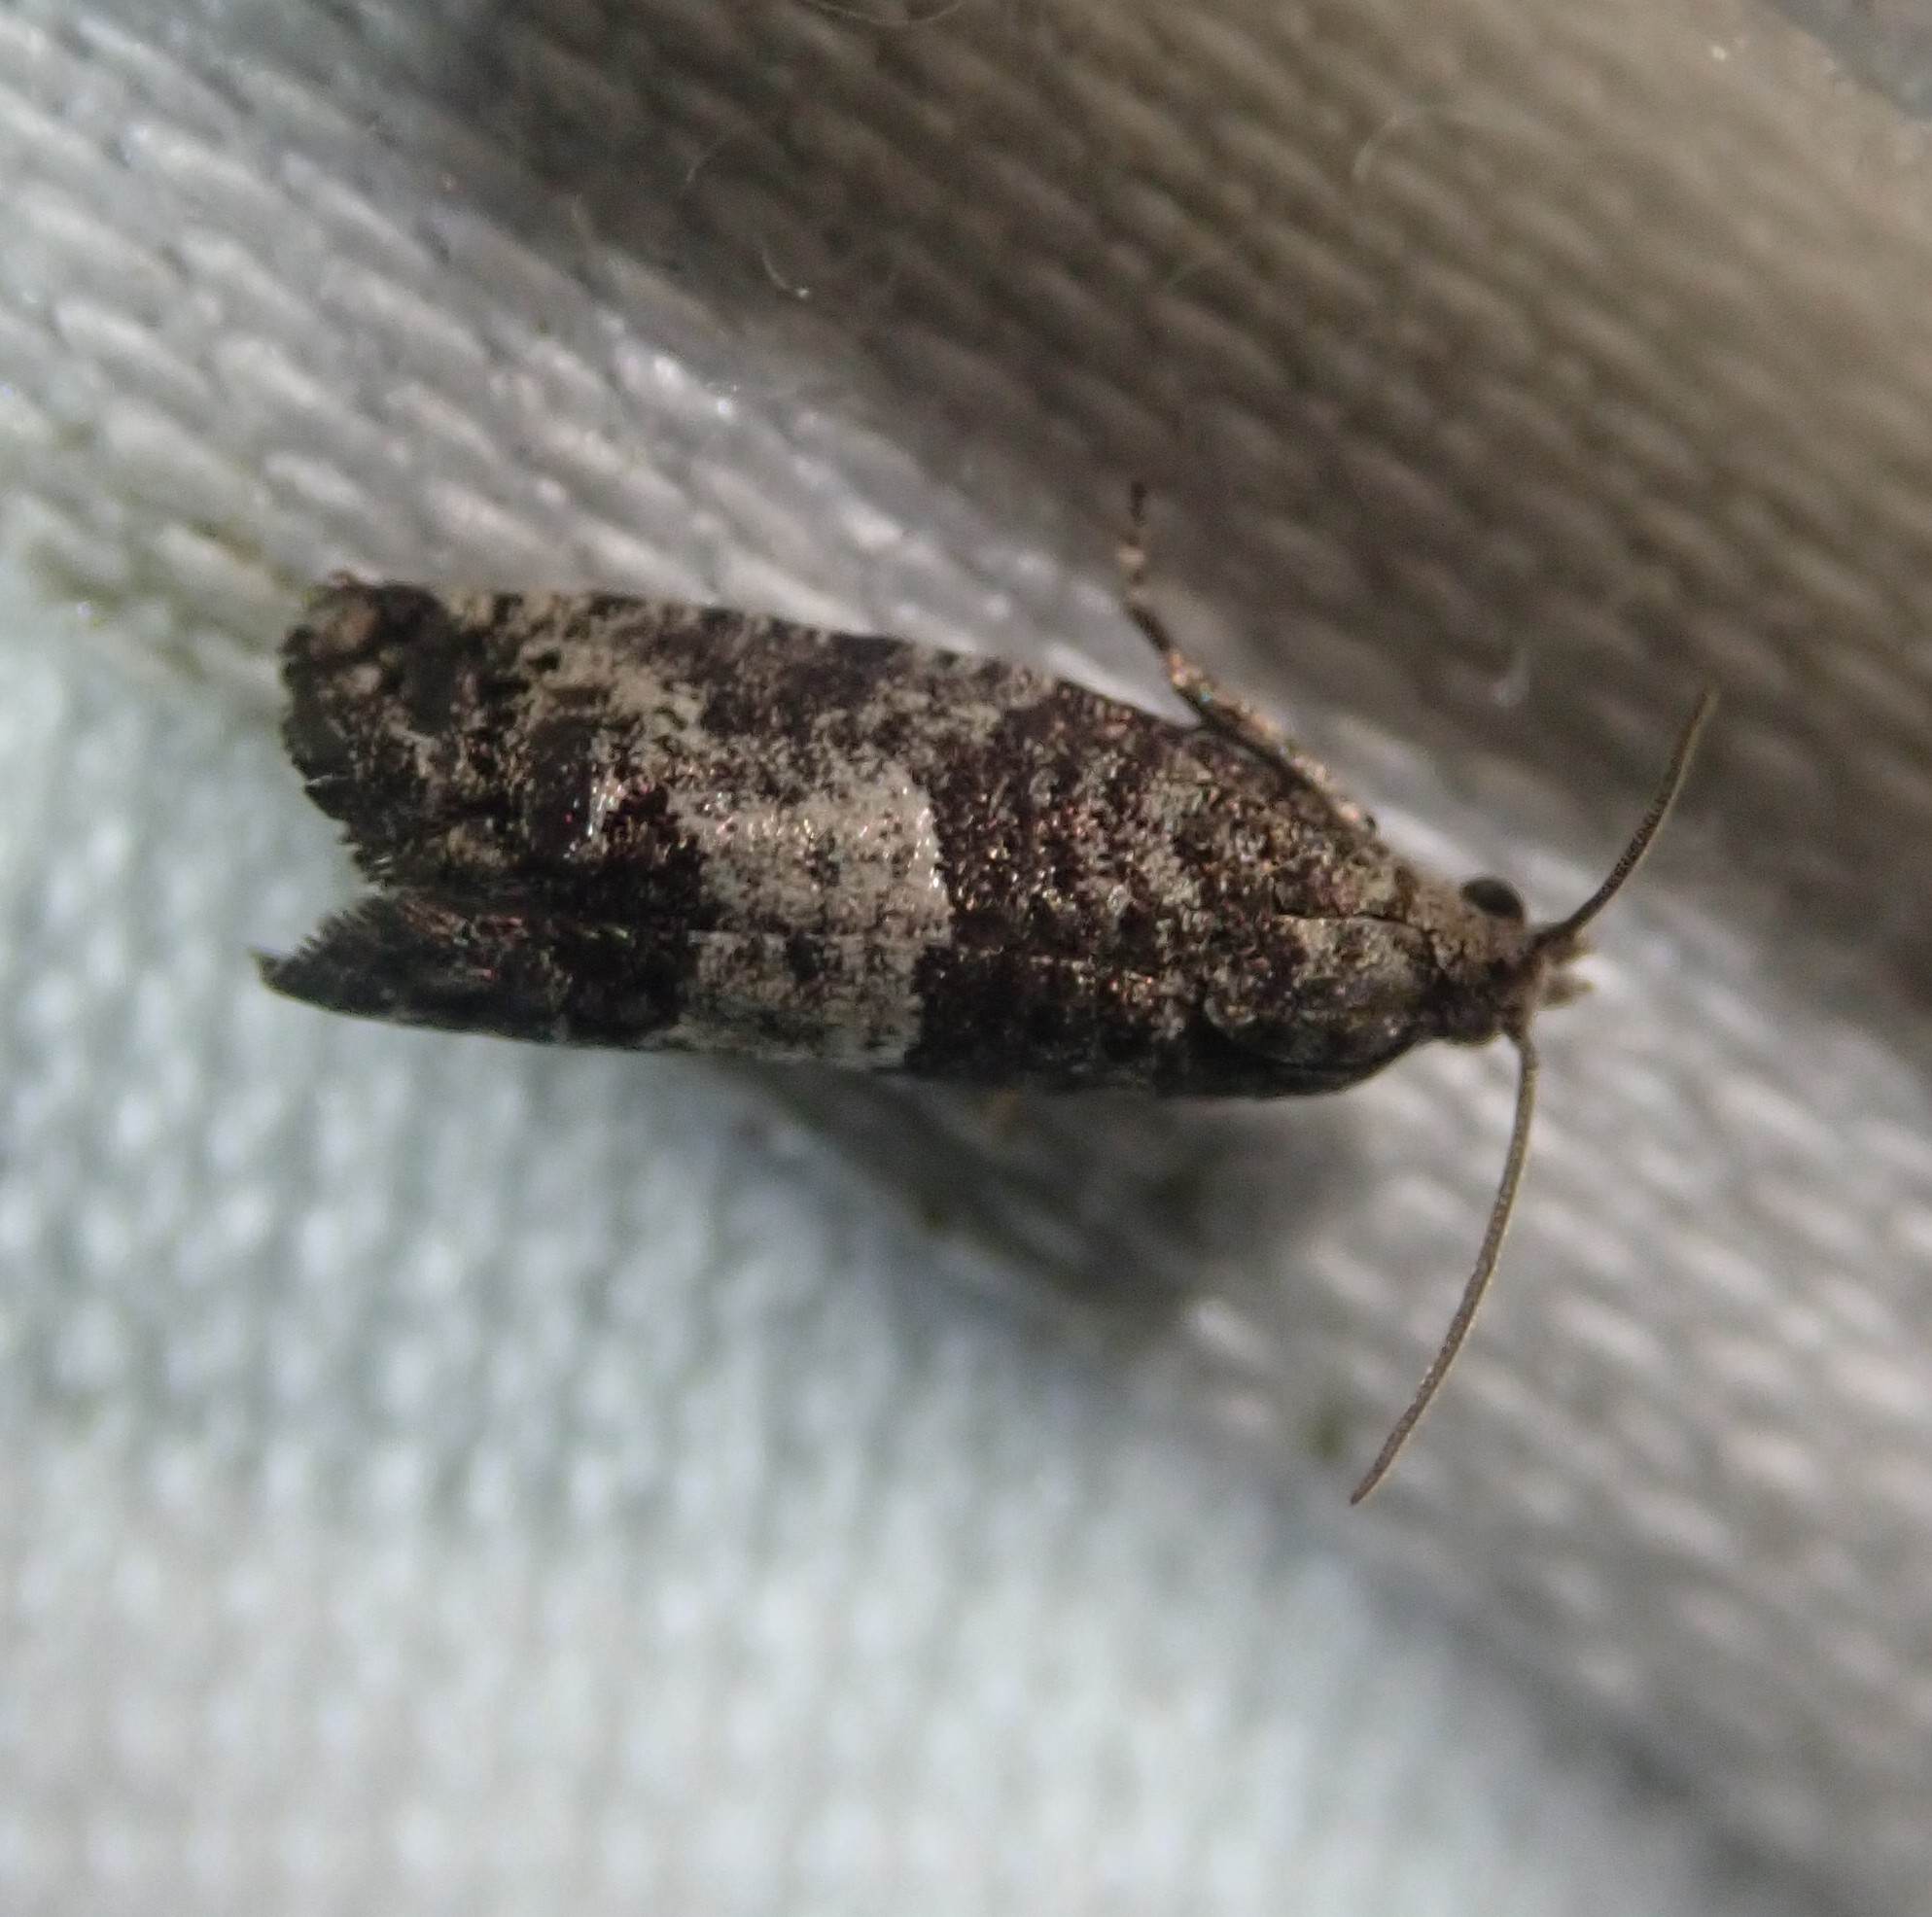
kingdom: Animalia
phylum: Arthropoda
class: Insecta
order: Lepidoptera
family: Tortricidae
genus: Spilonota
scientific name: Spilonota laricana
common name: Larch shoot tortricid moth
